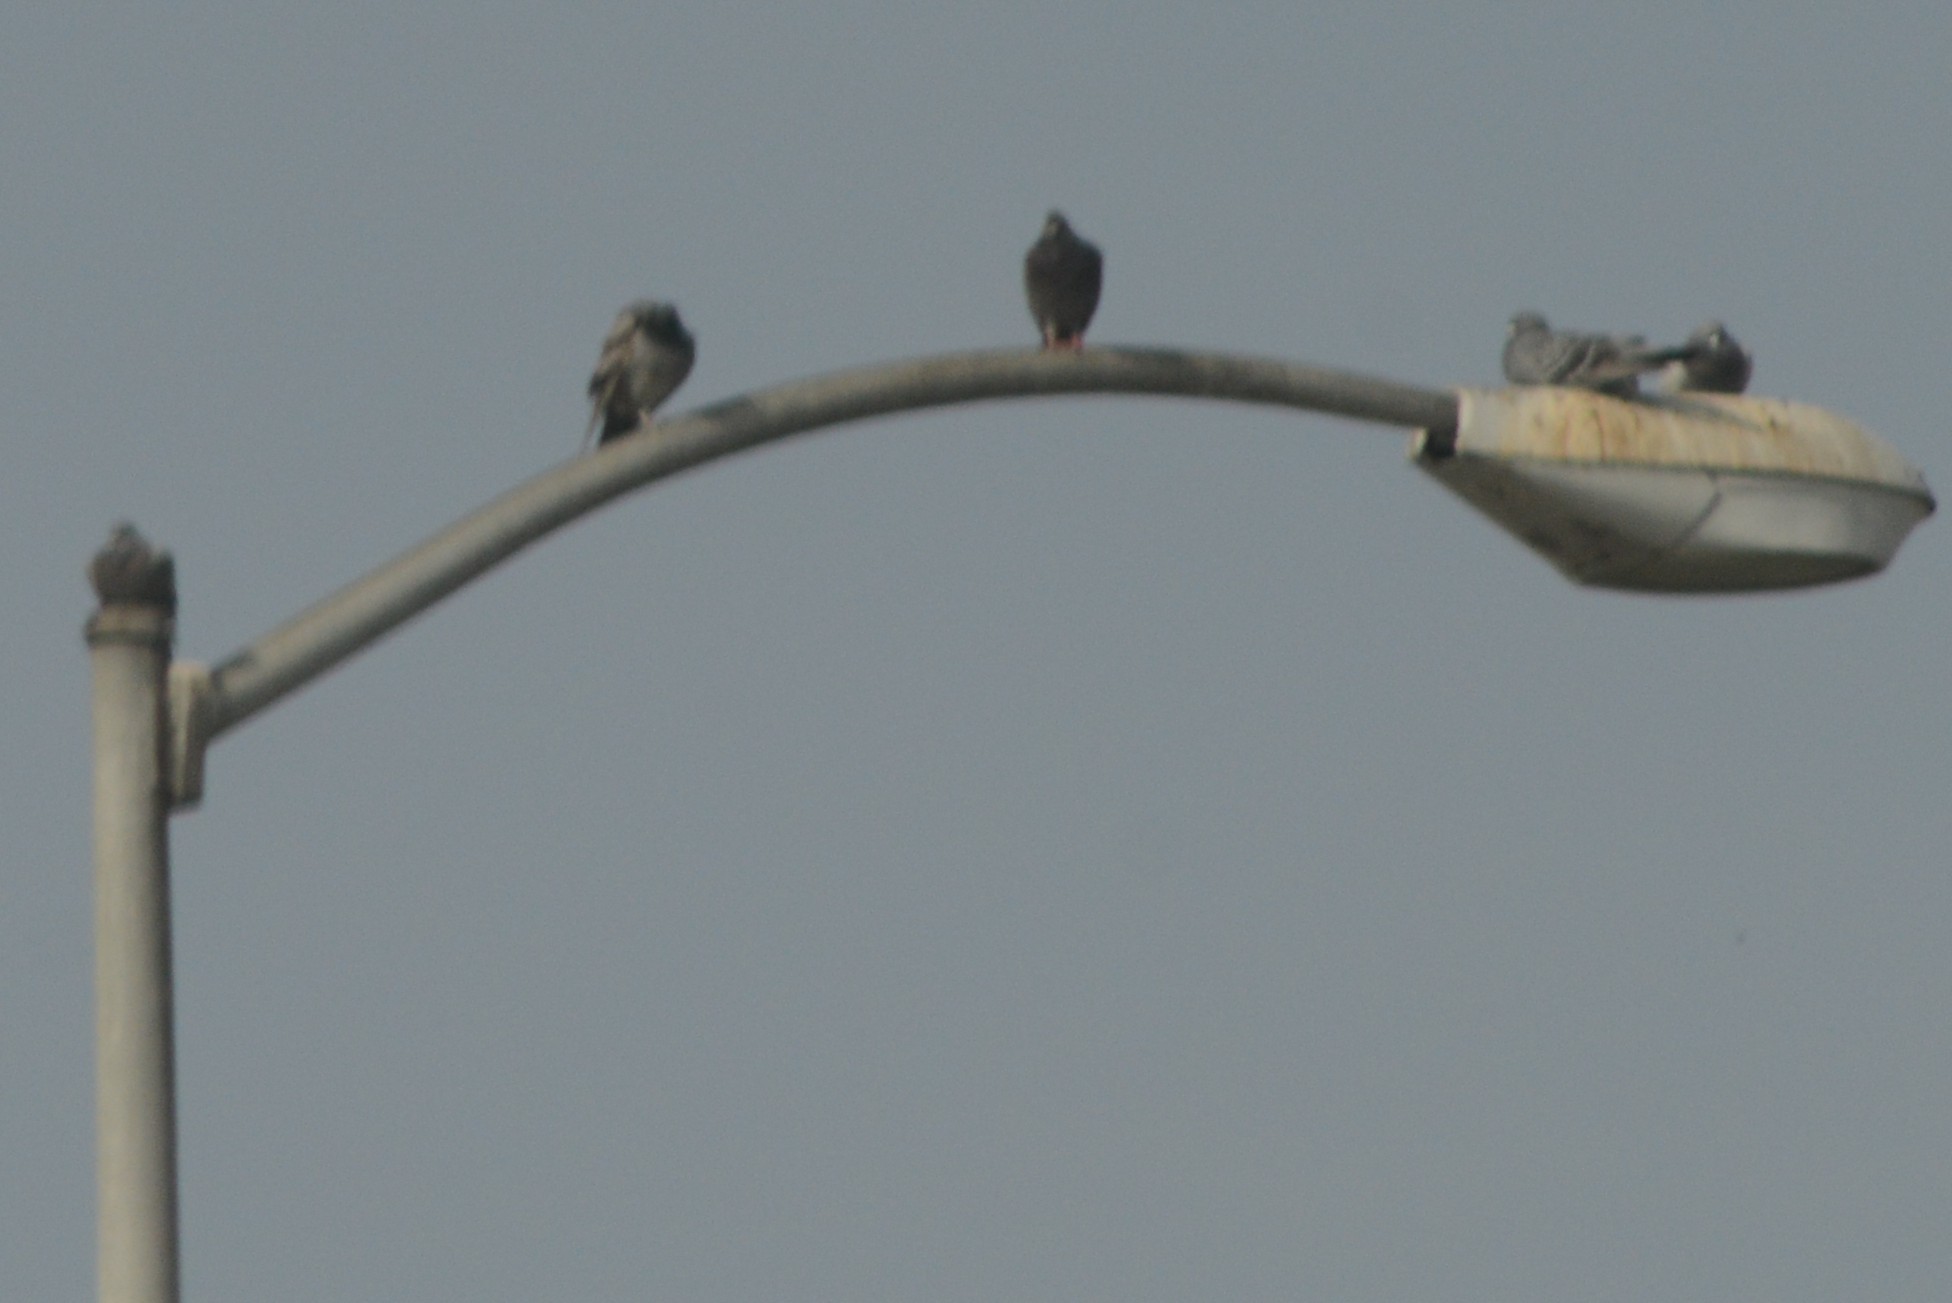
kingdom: Animalia
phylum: Chordata
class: Aves
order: Columbiformes
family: Columbidae
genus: Columba
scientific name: Columba livia
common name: Rock pigeon
